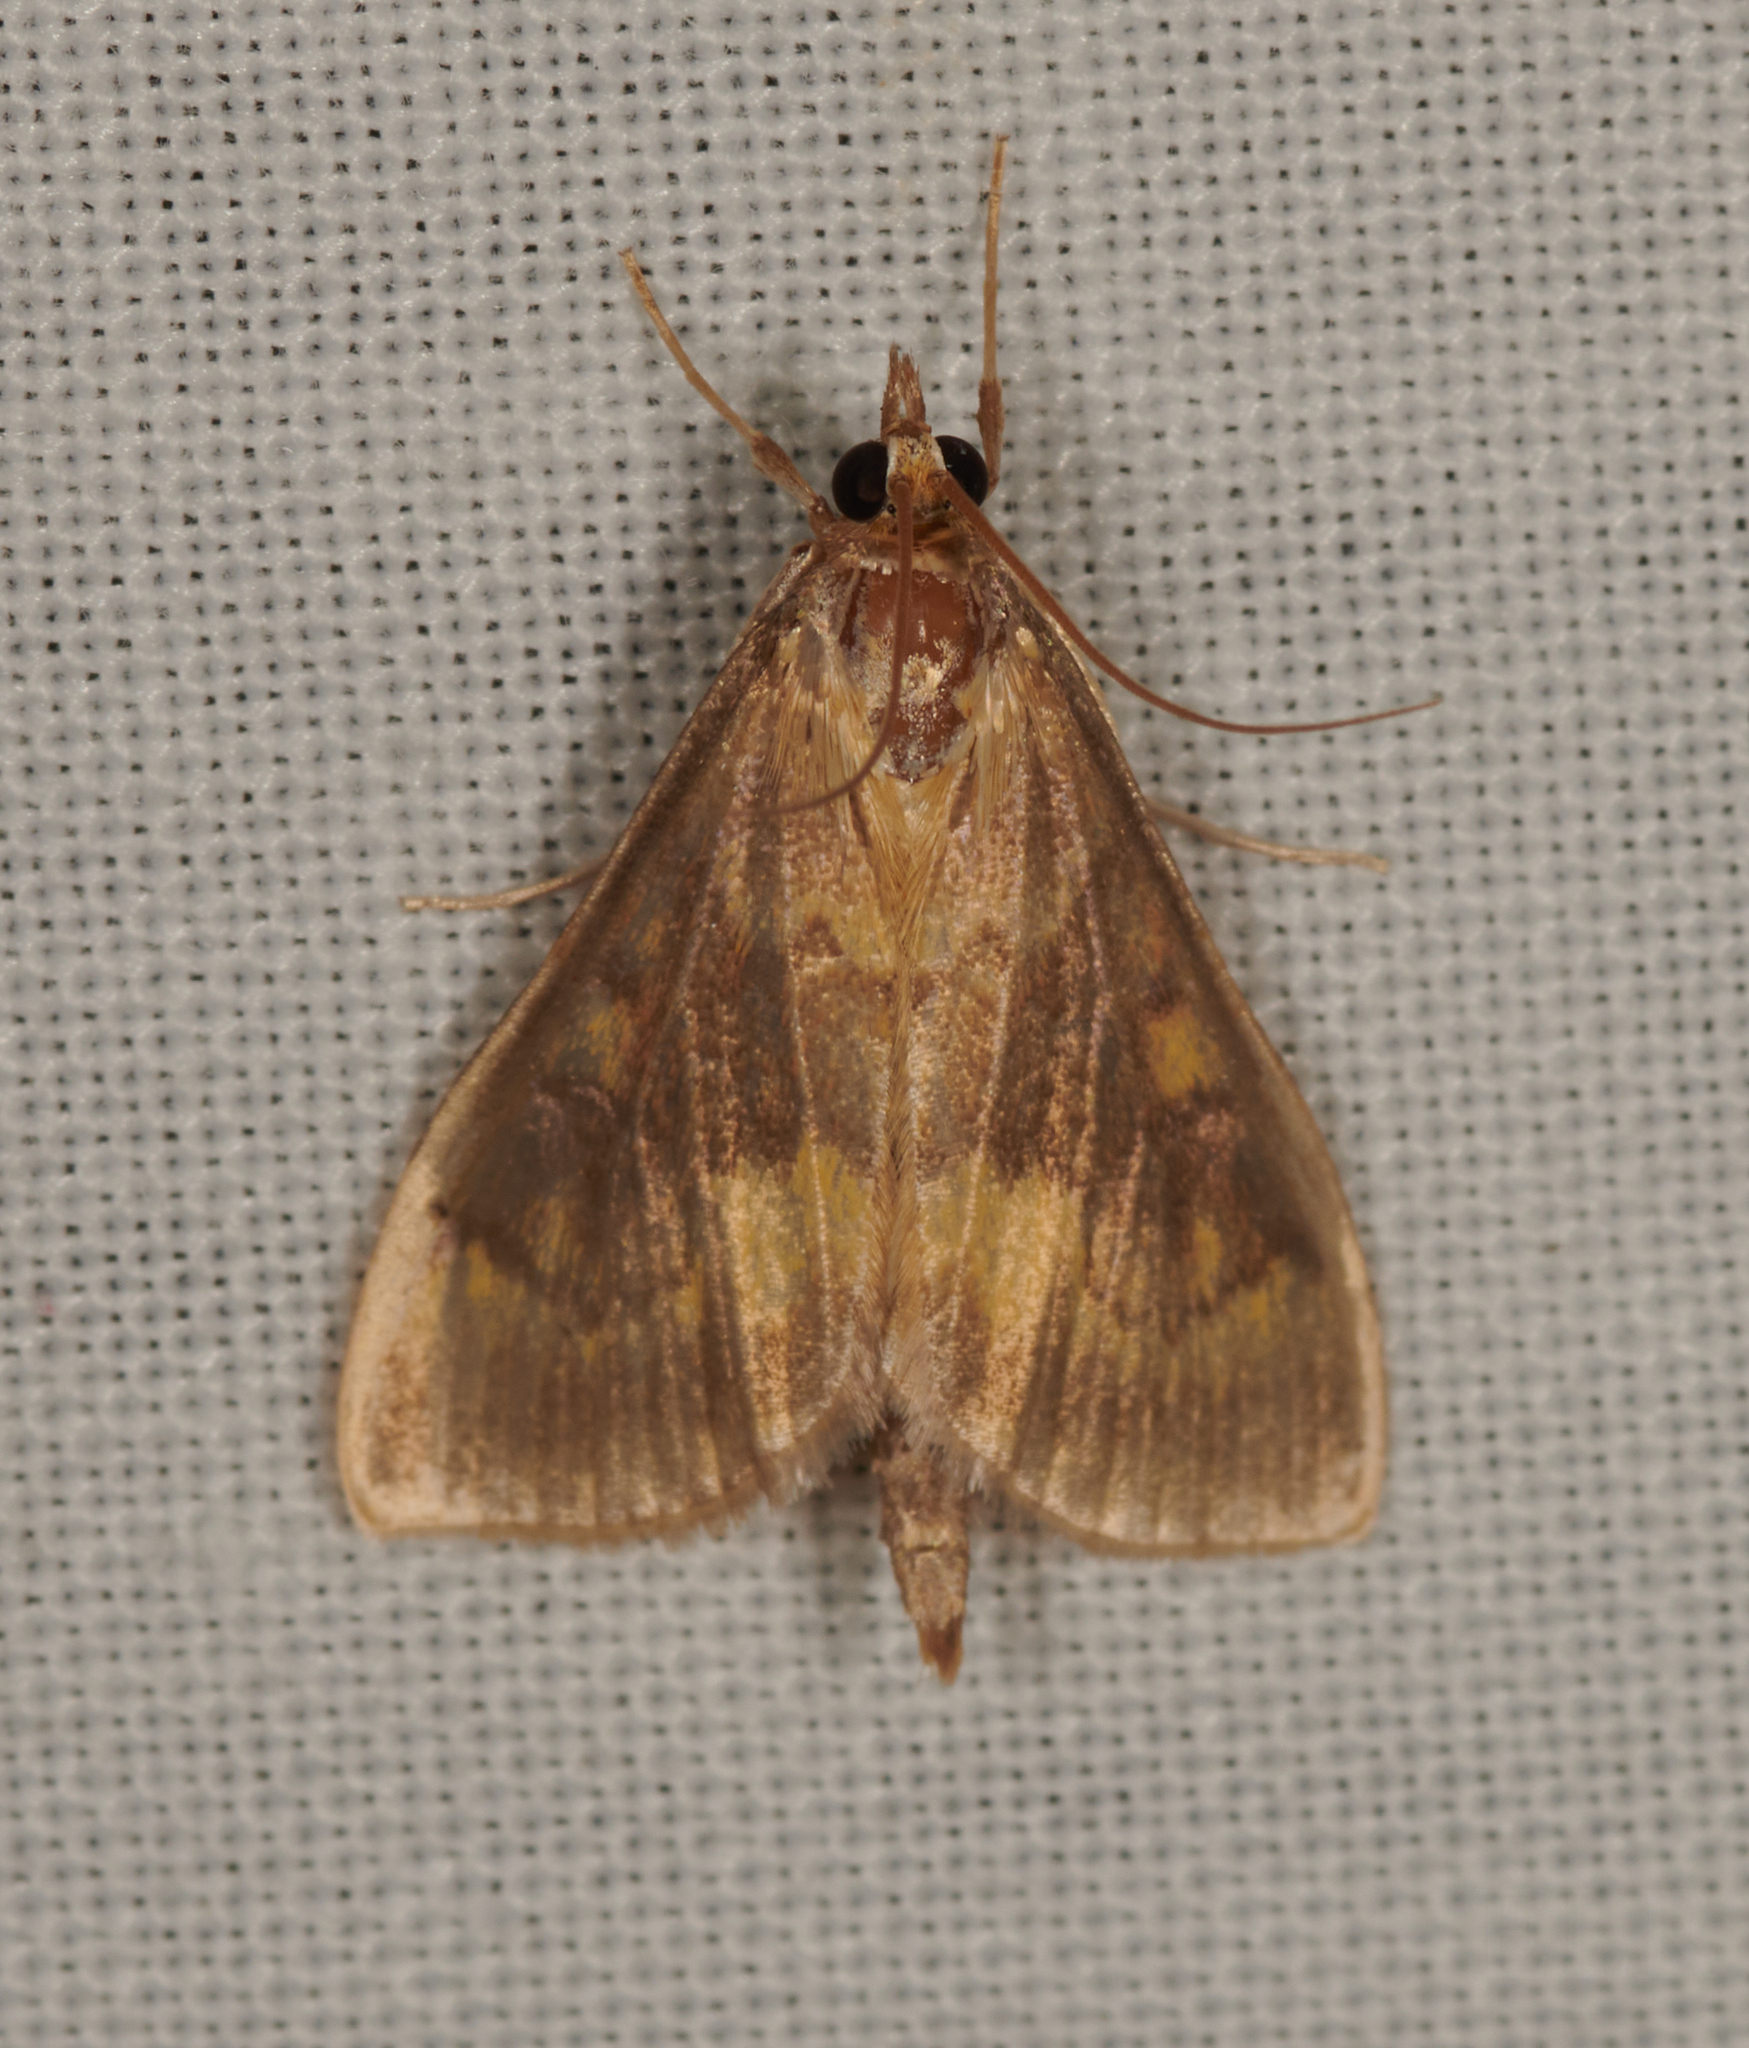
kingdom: Animalia
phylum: Arthropoda
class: Insecta
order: Lepidoptera
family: Crambidae
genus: Ostrinia
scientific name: Ostrinia nubilalis
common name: European corn borer
